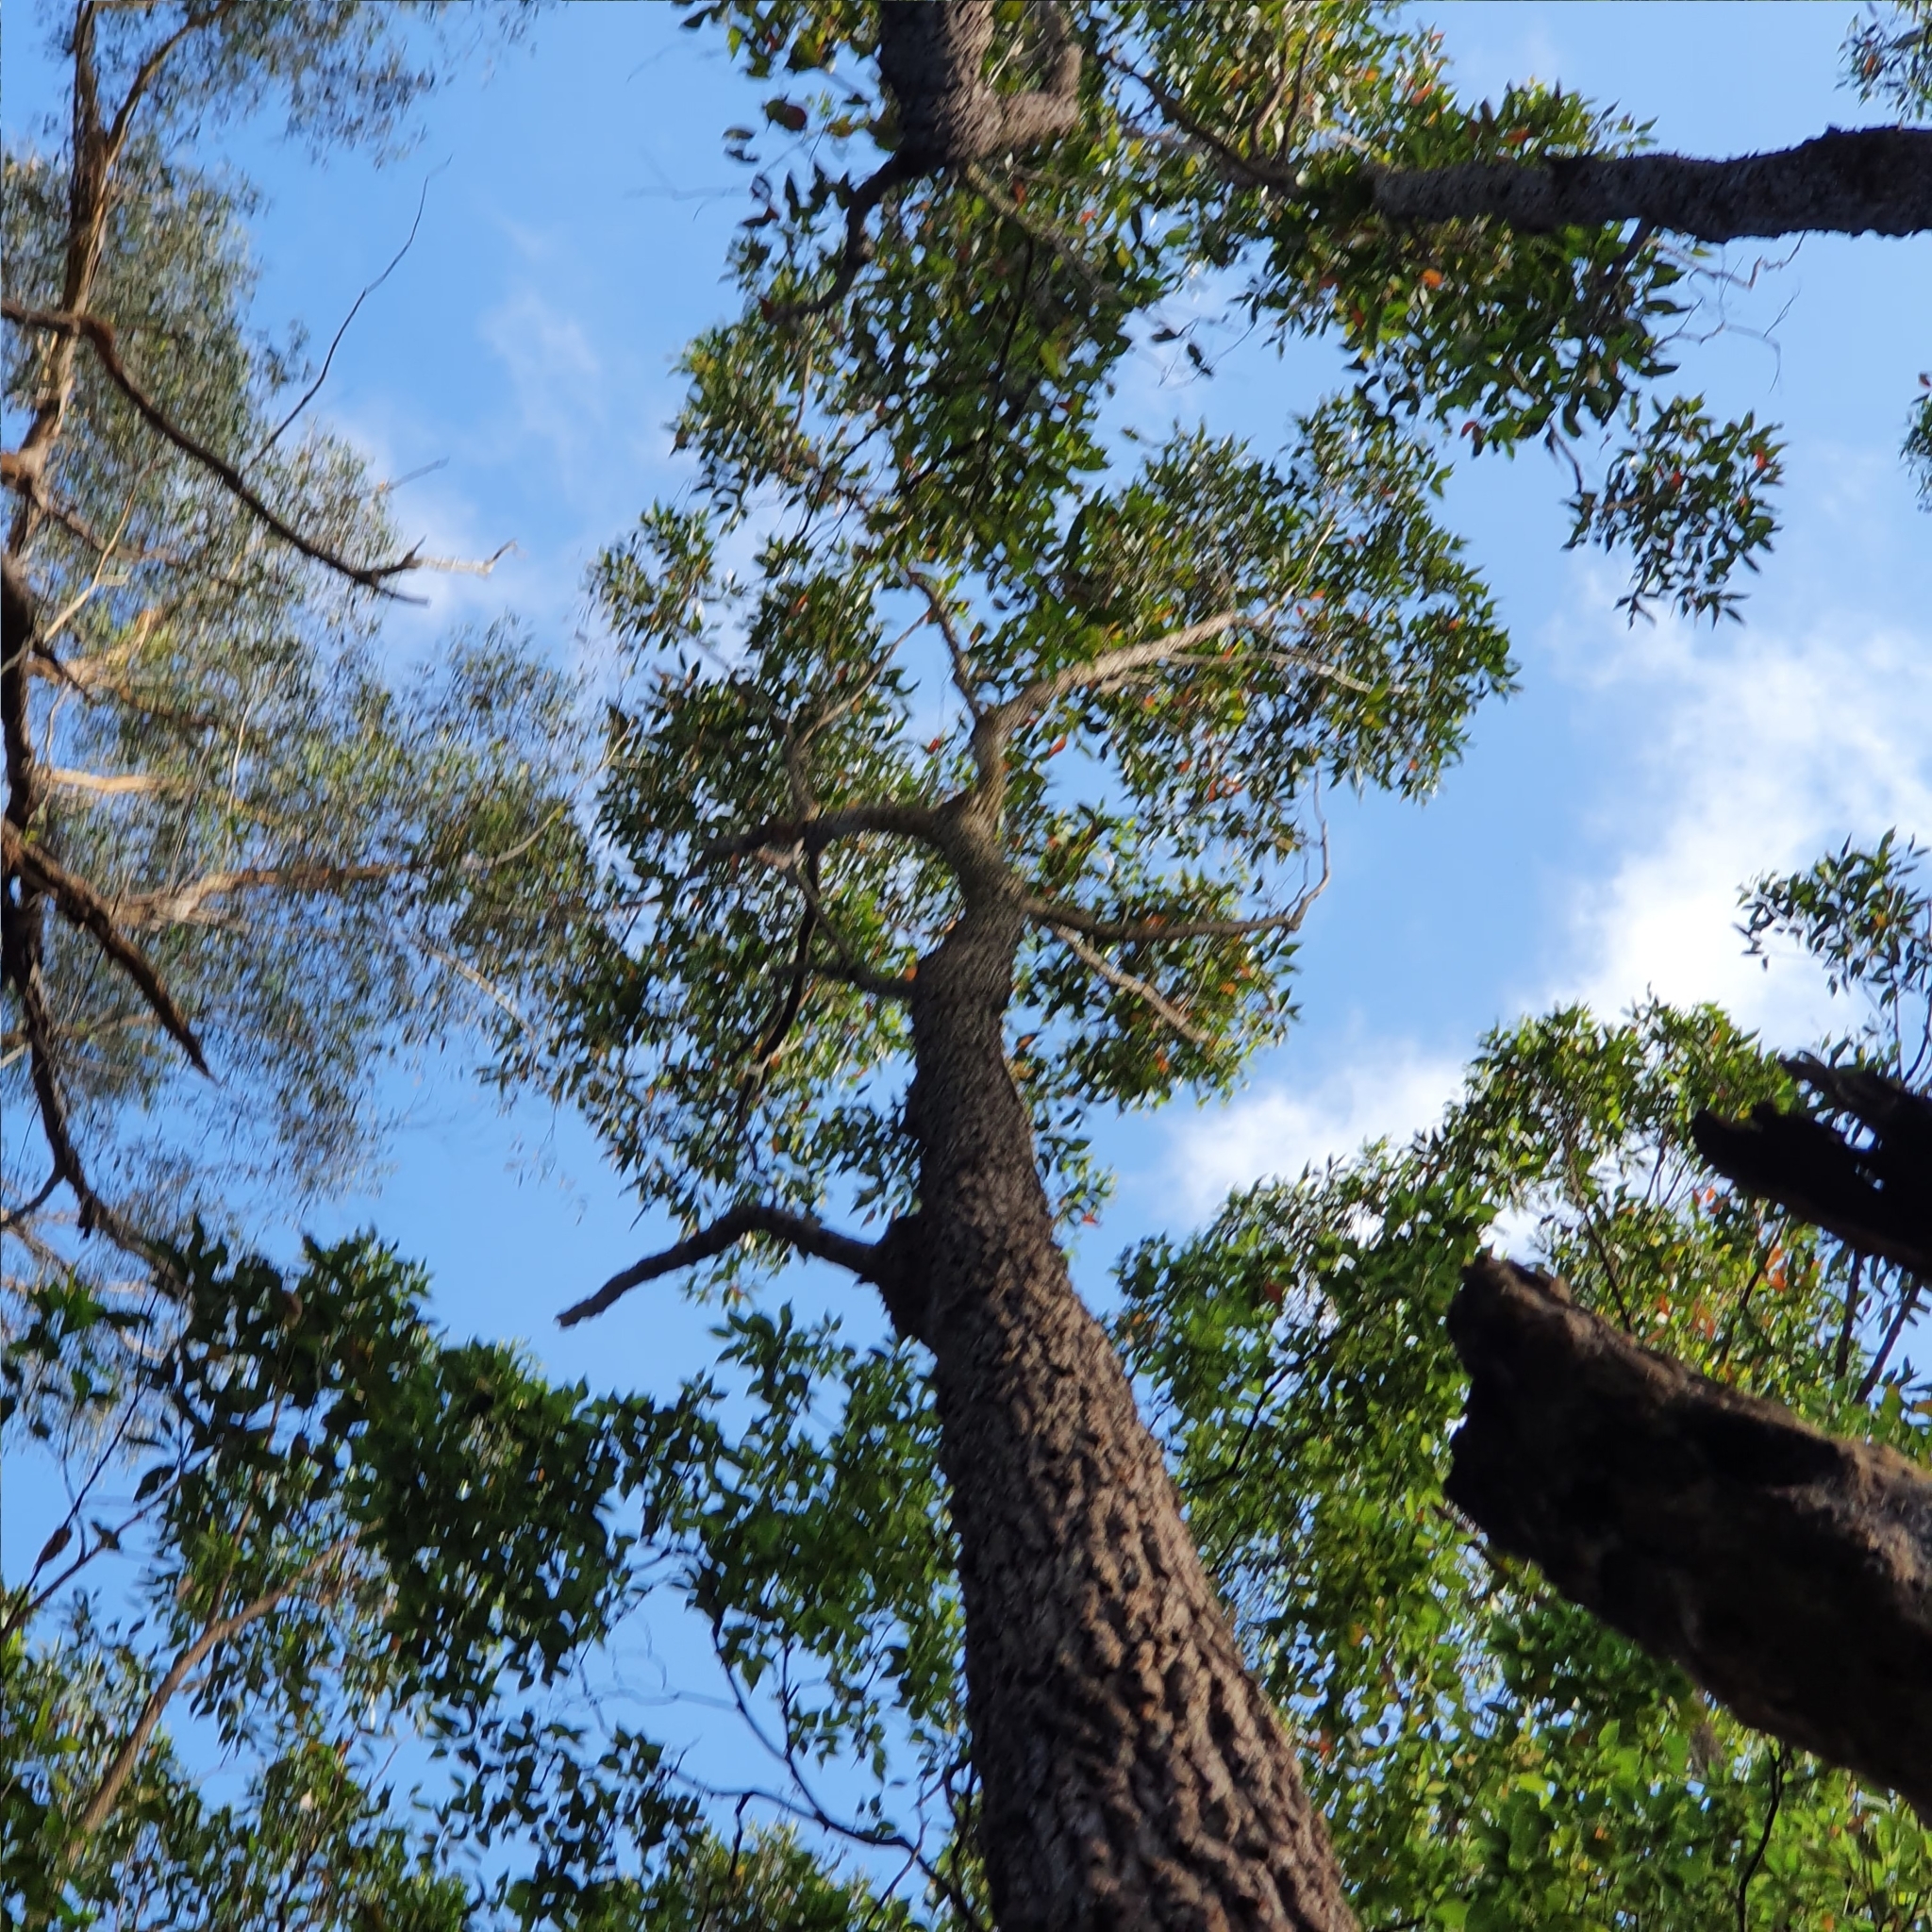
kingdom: Plantae
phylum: Tracheophyta
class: Magnoliopsida
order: Myrtales
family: Myrtaceae
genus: Eucalyptus
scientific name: Eucalyptus robusta
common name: Swampmahogany
